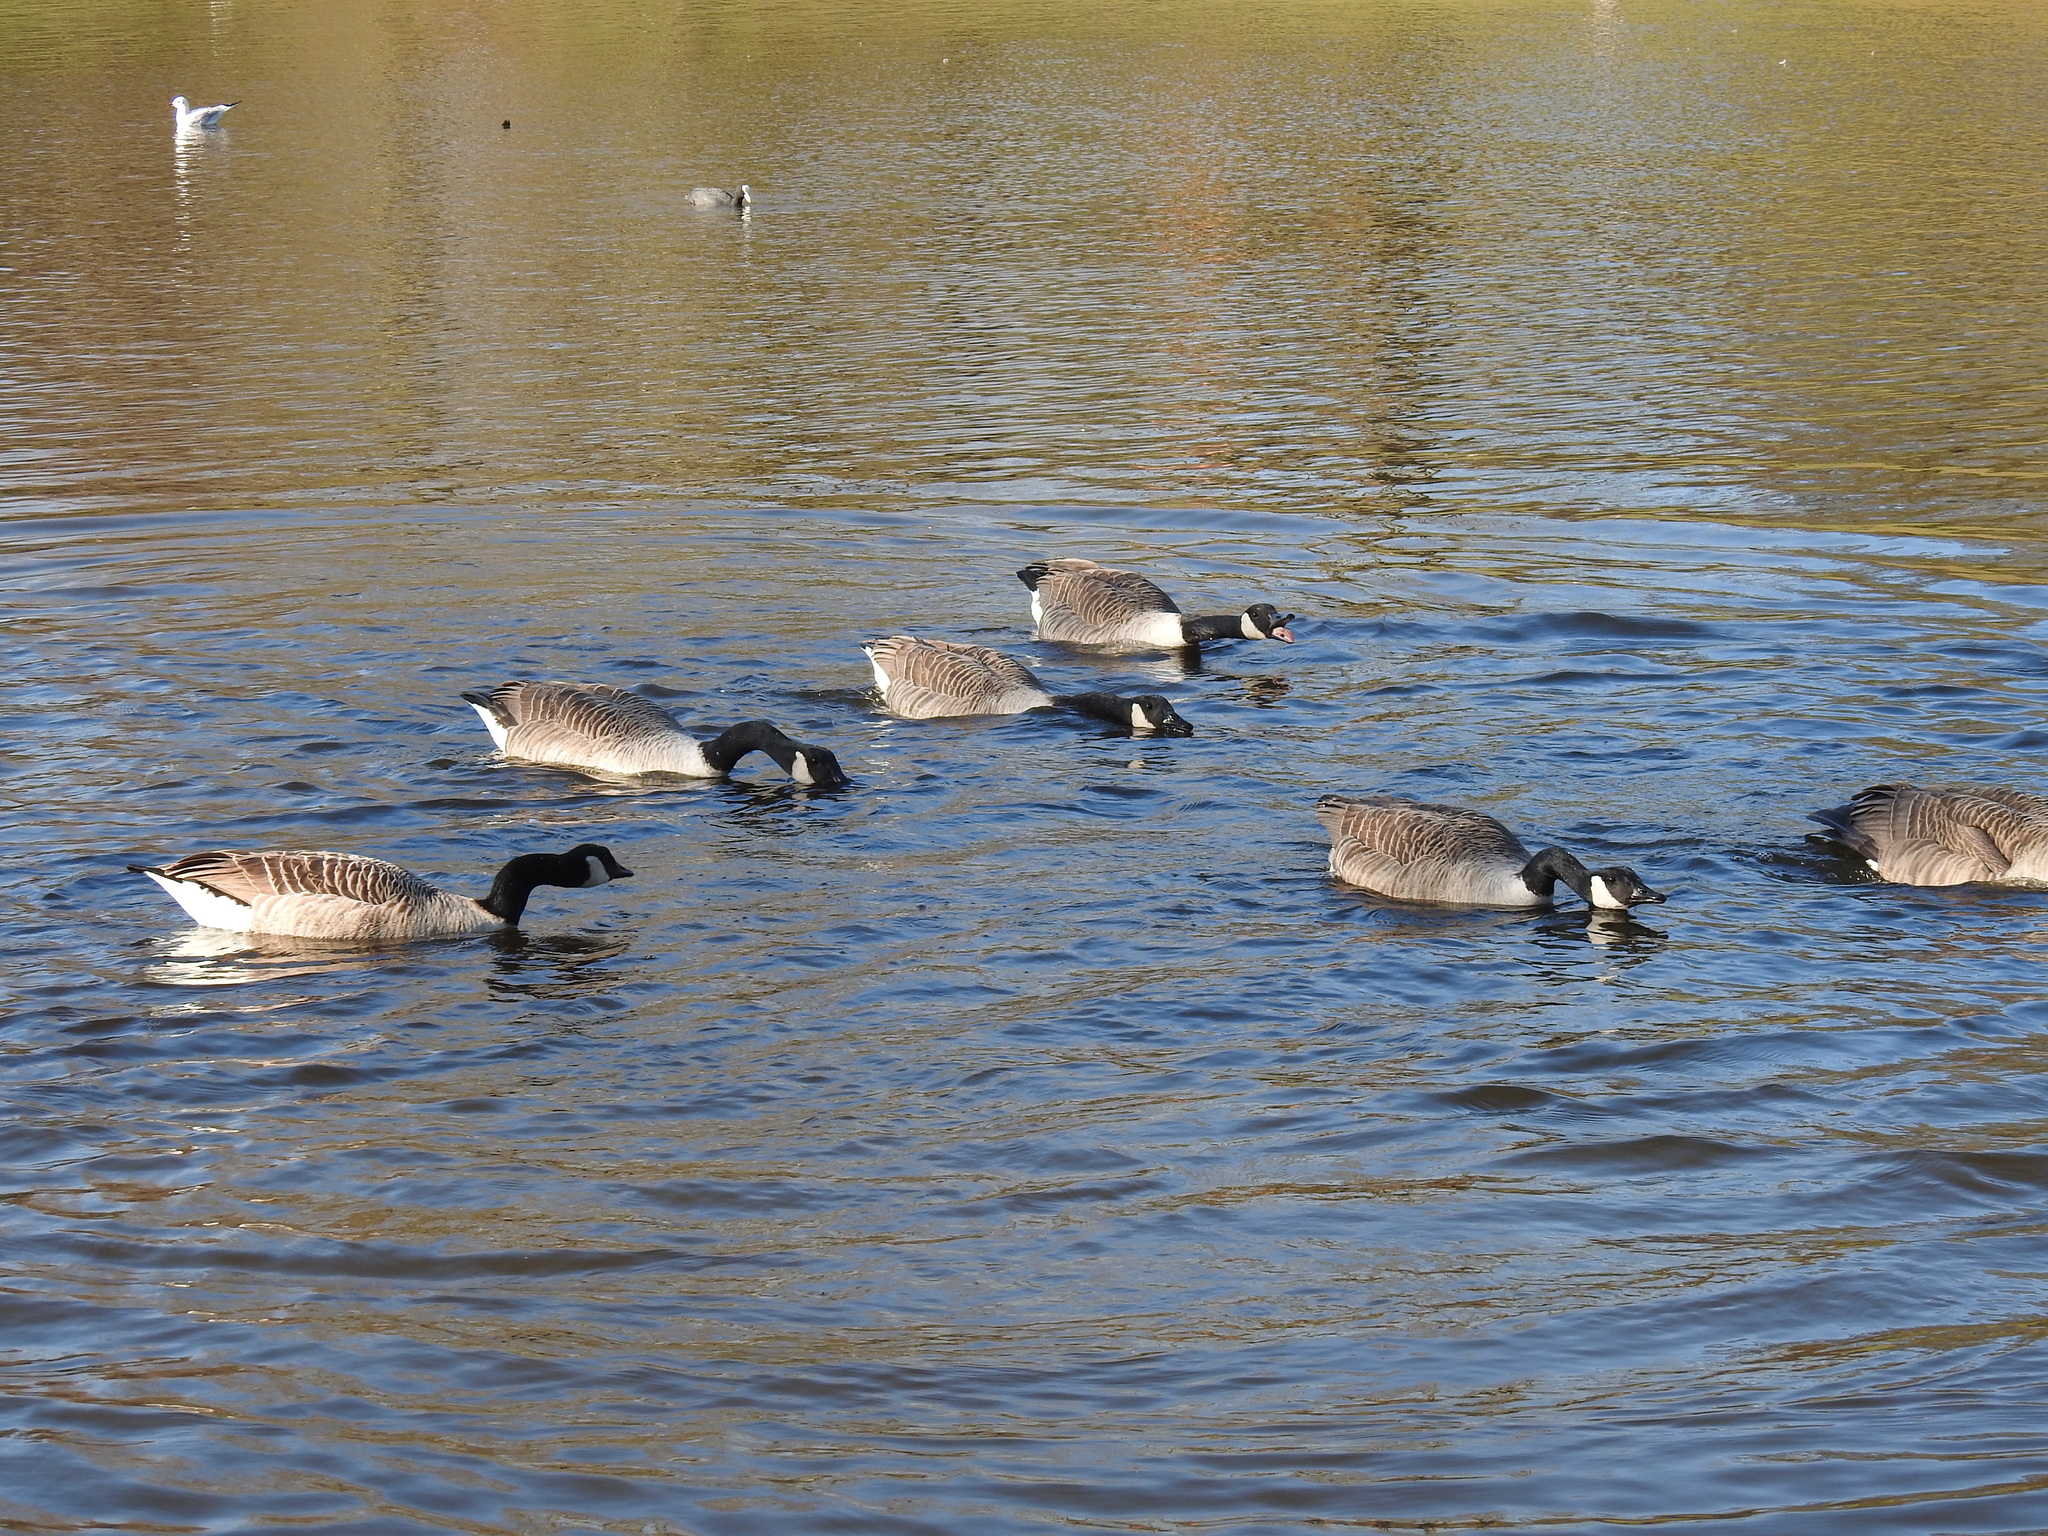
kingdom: Animalia
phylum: Chordata
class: Aves
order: Anseriformes
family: Anatidae
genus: Branta
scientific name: Branta canadensis
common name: Canada goose
